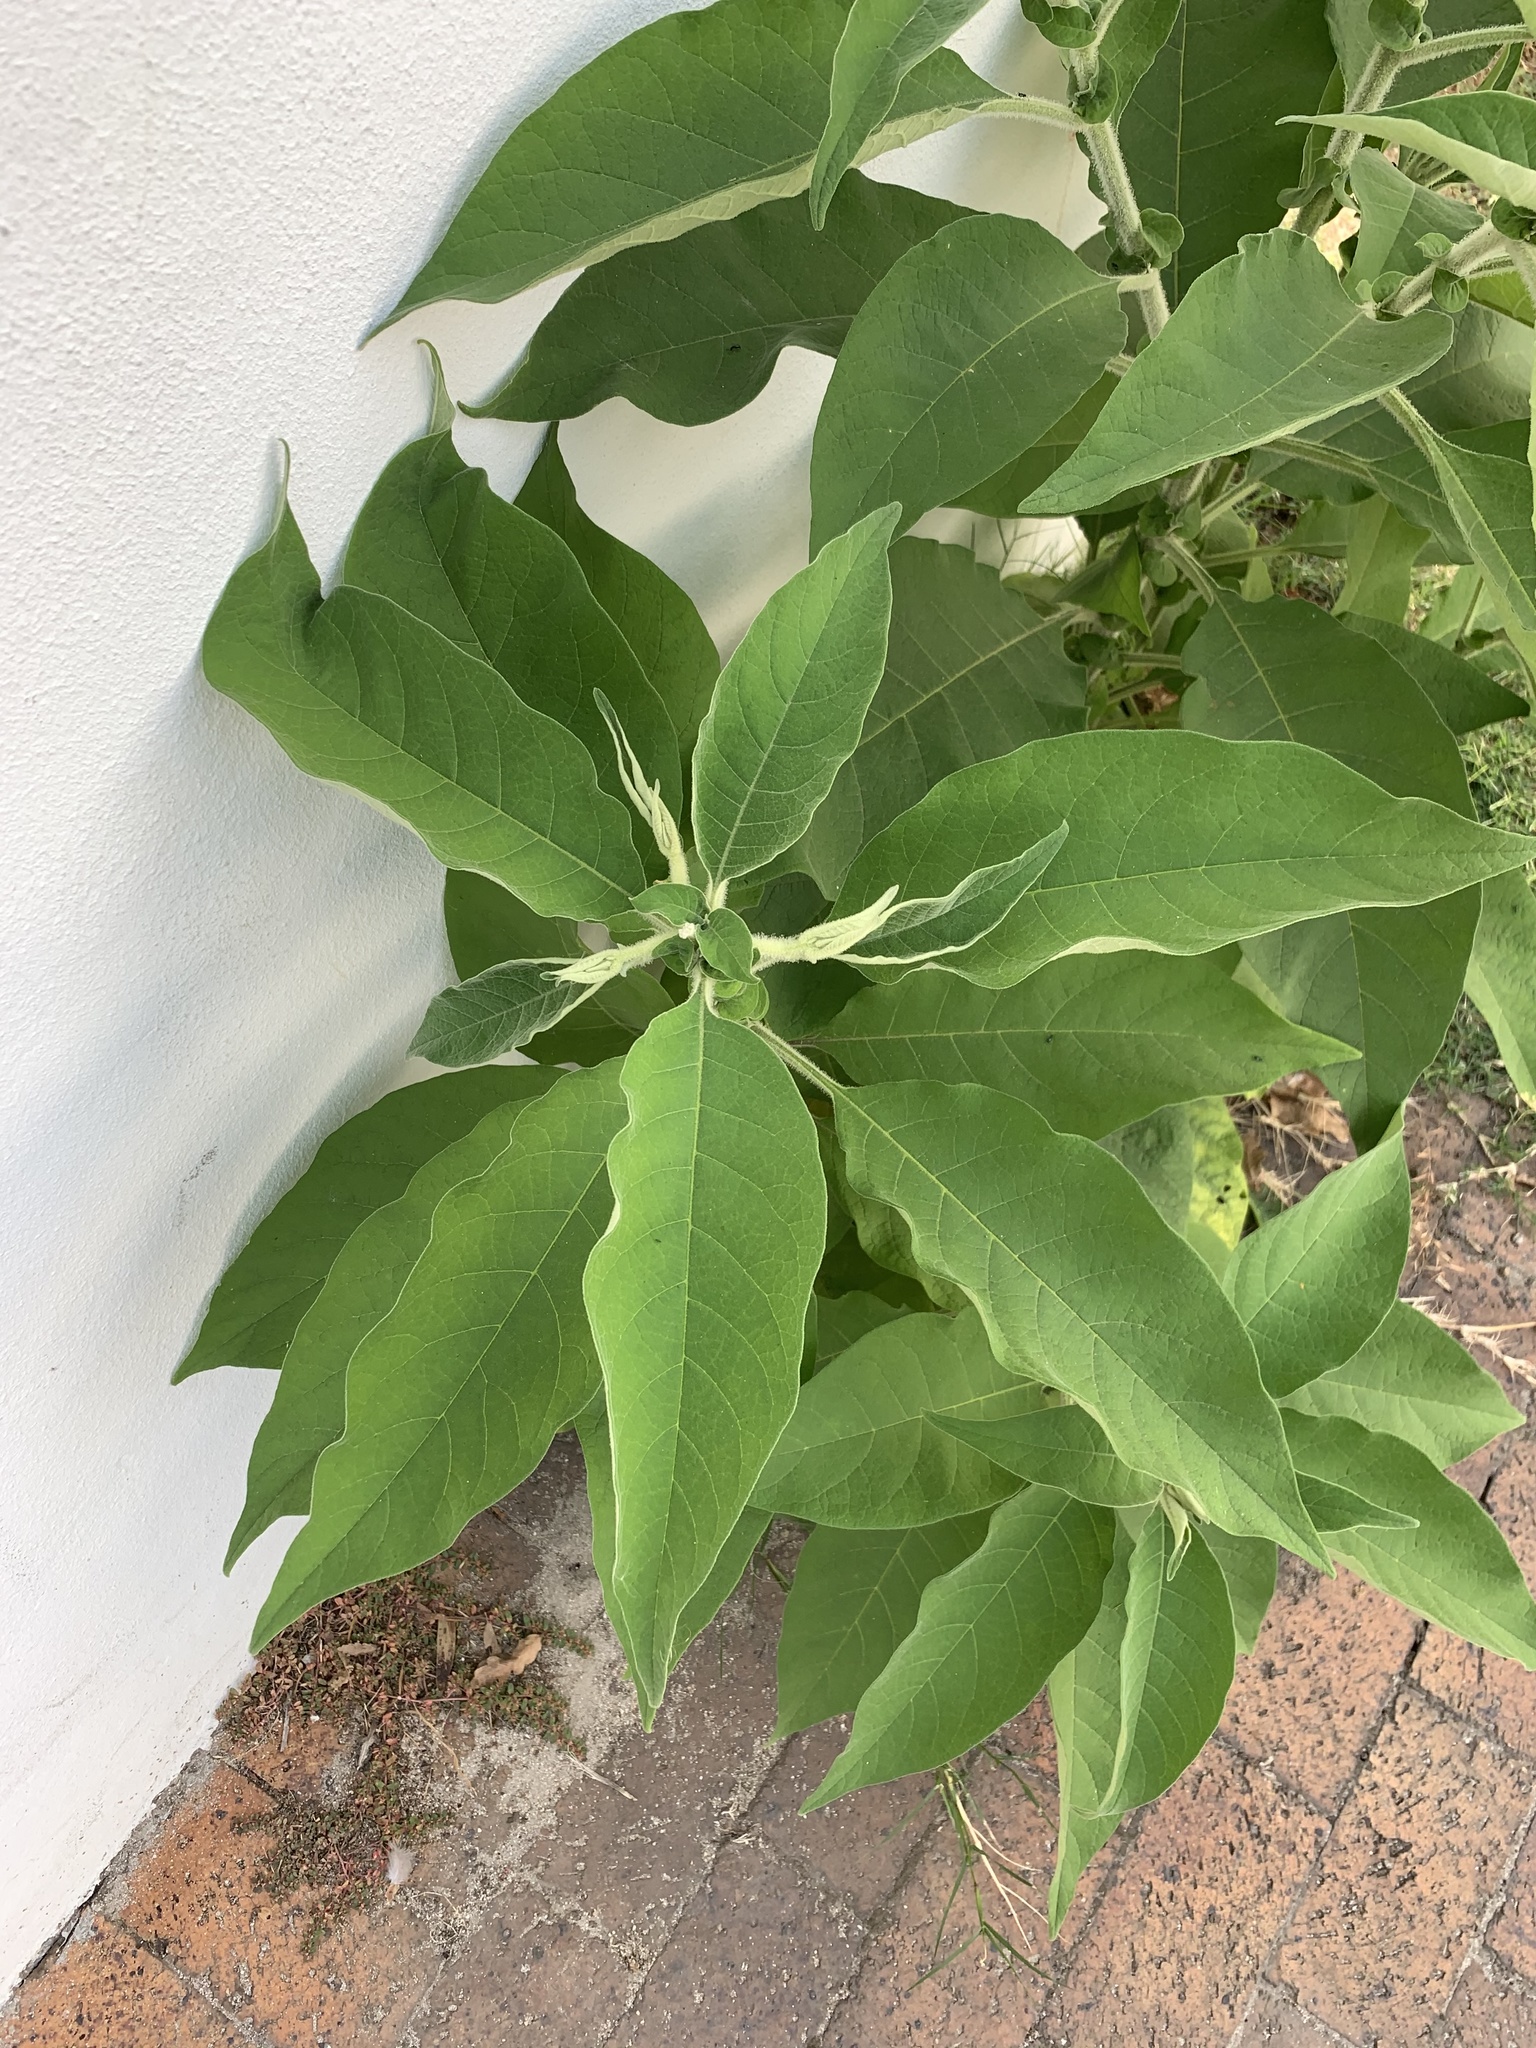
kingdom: Plantae
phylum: Tracheophyta
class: Magnoliopsida
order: Solanales
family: Solanaceae
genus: Solanum
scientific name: Solanum mauritianum
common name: Earleaf nightshade
